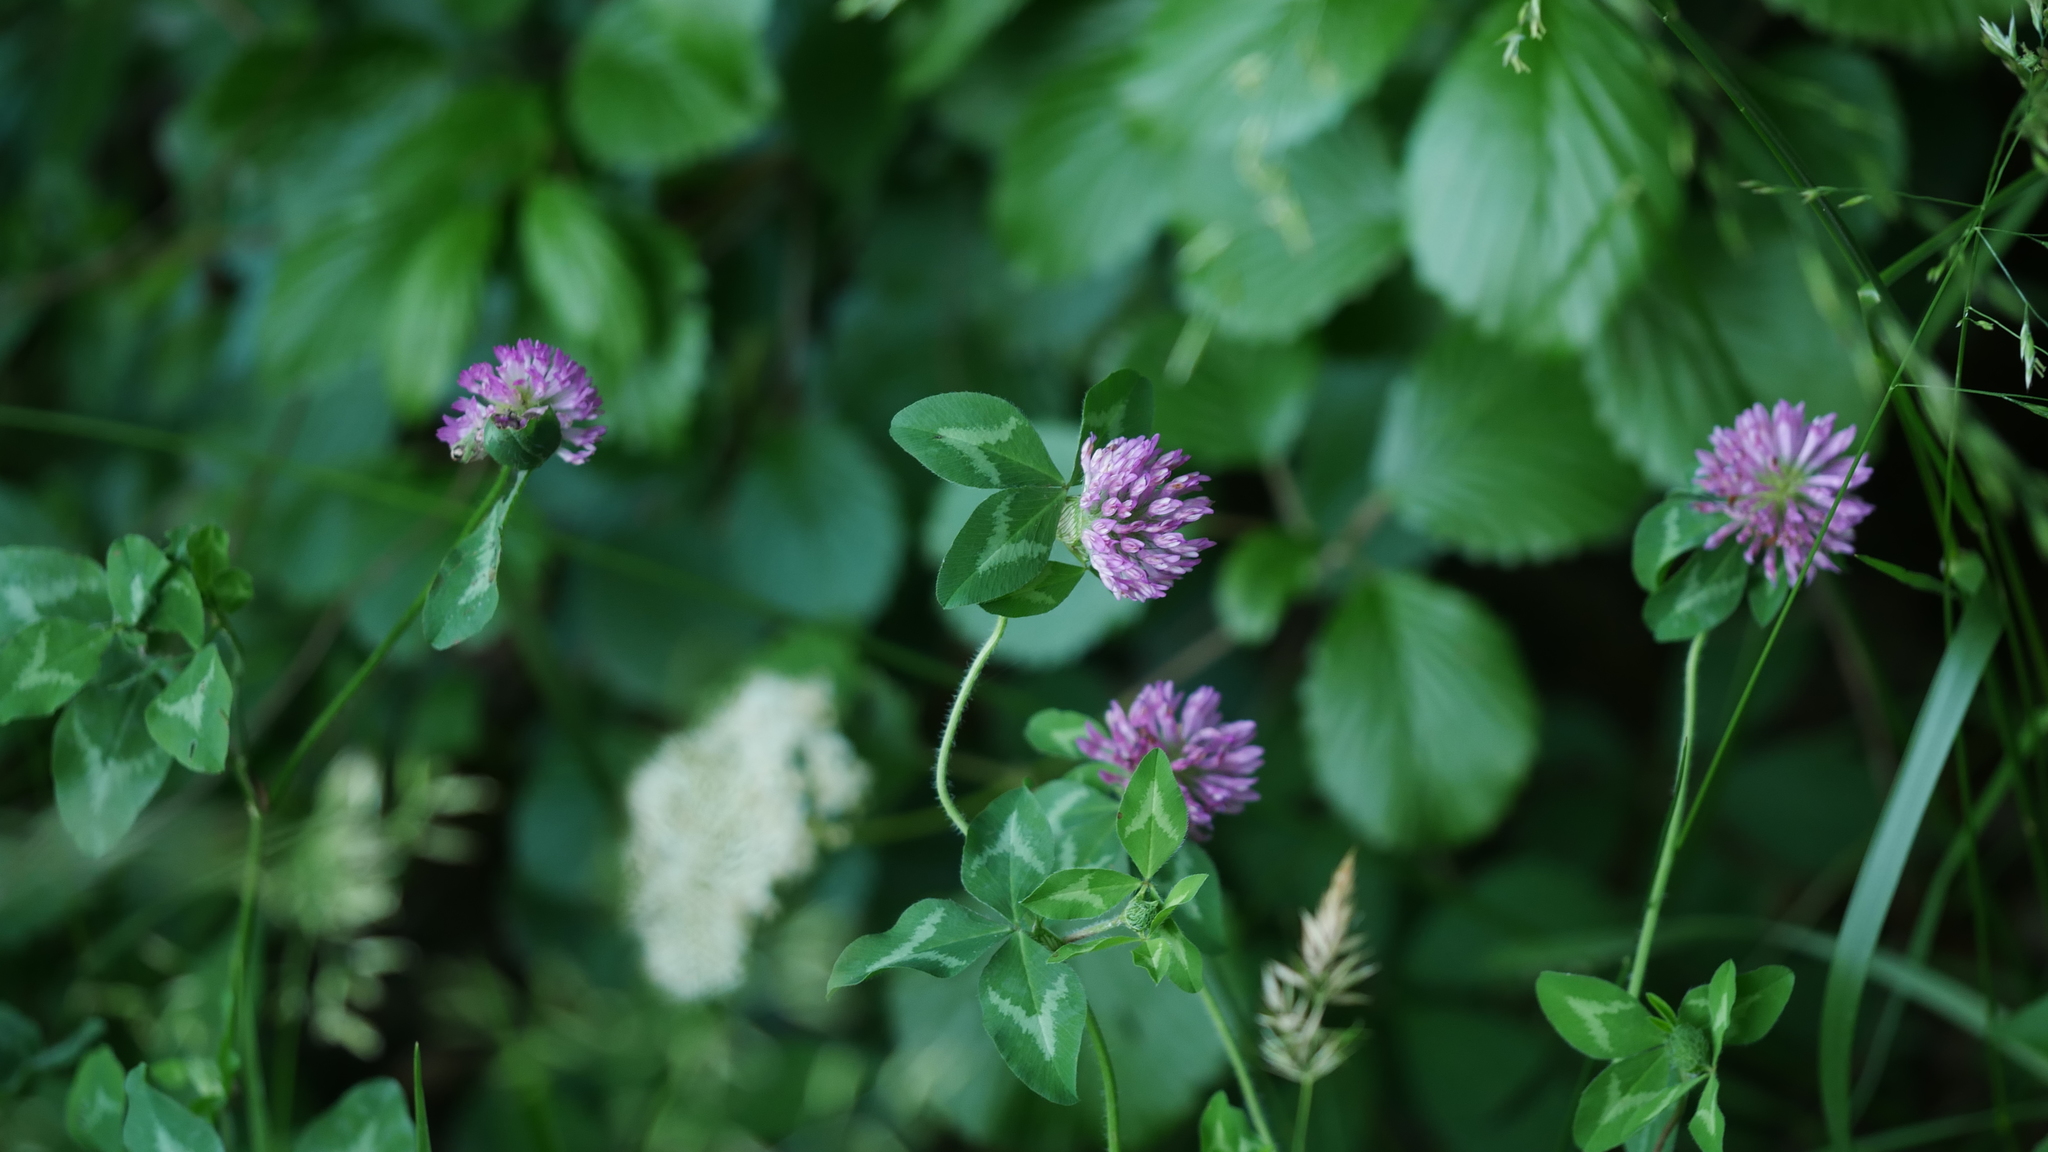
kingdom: Plantae
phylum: Tracheophyta
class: Magnoliopsida
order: Fabales
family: Fabaceae
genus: Trifolium
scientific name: Trifolium pratense
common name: Red clover
